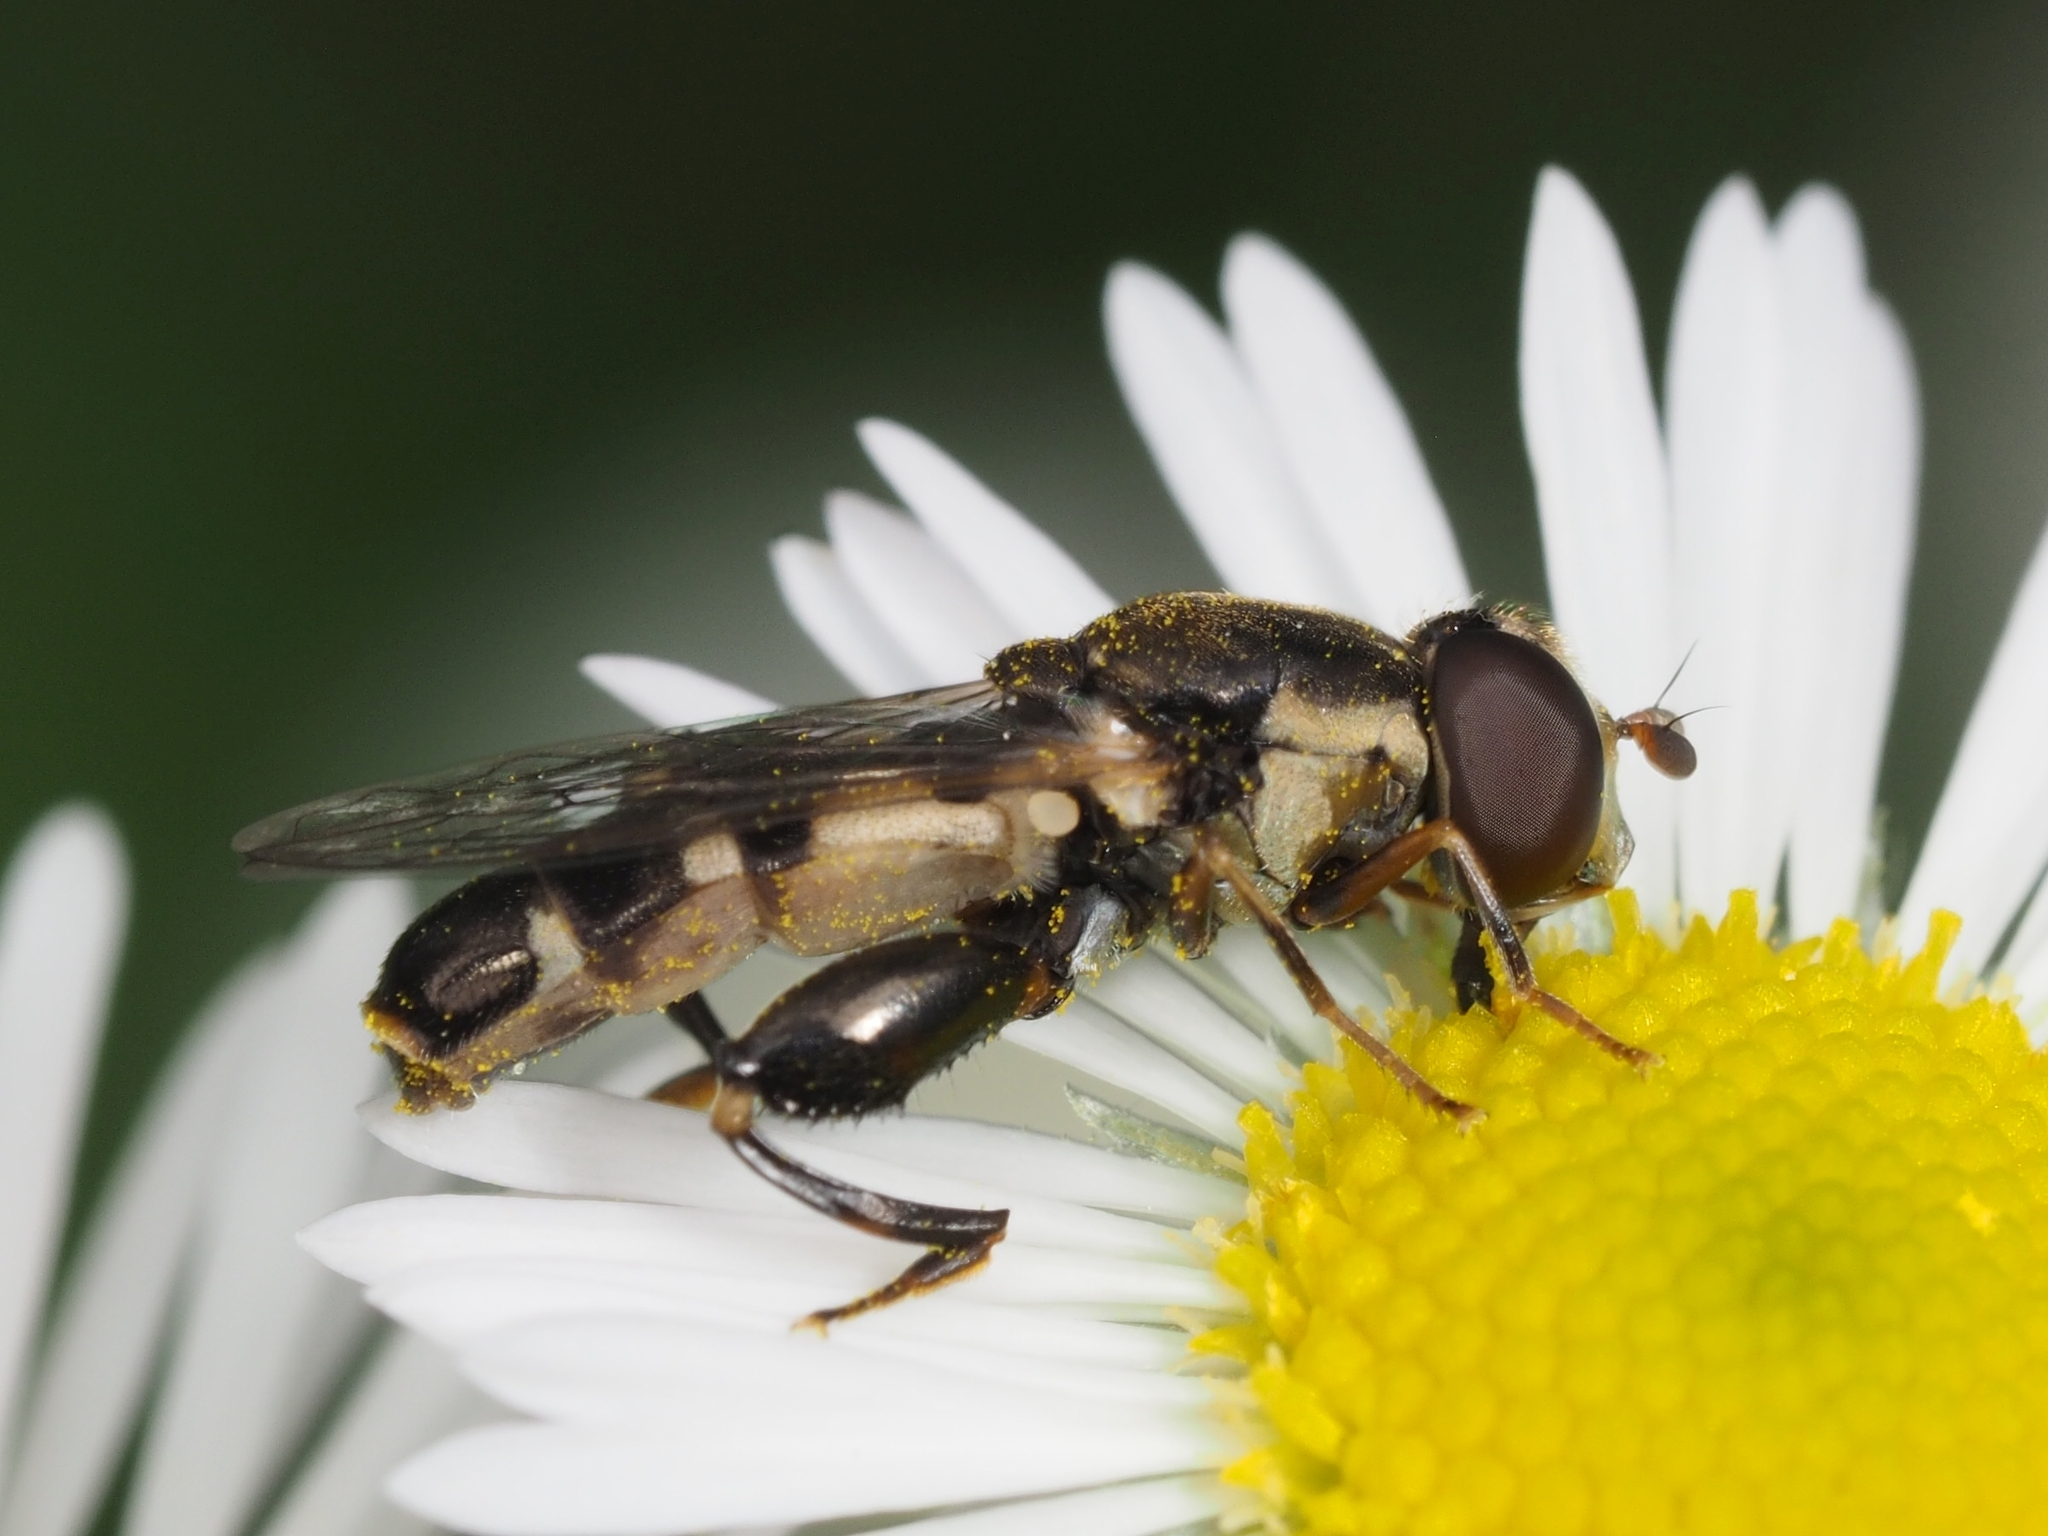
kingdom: Animalia
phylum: Arthropoda
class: Insecta
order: Diptera
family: Syrphidae
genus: Syritta
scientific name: Syritta pipiens
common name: Hover fly
